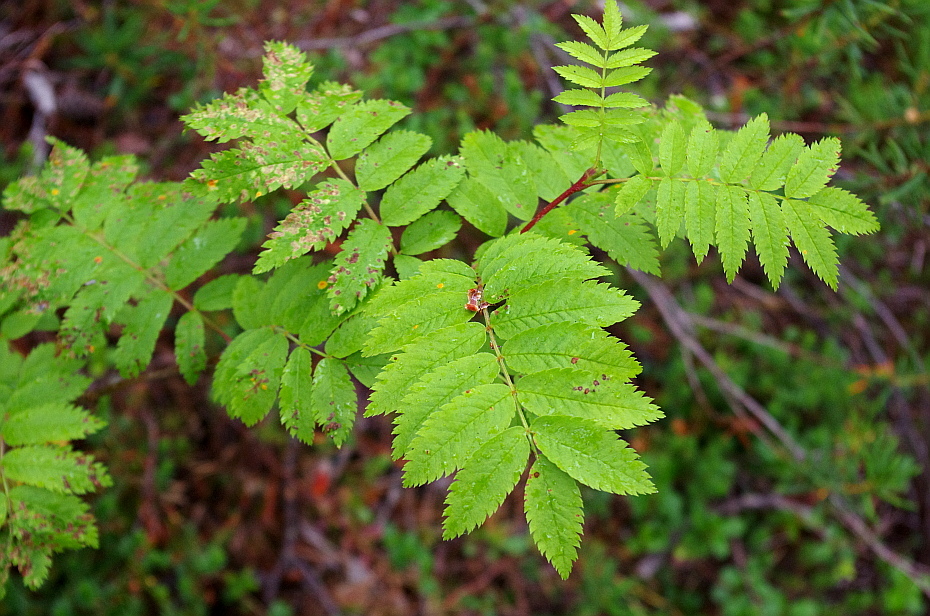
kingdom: Plantae
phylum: Tracheophyta
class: Magnoliopsida
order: Rosales
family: Rosaceae
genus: Sorbus
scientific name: Sorbus aucuparia
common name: Rowan
